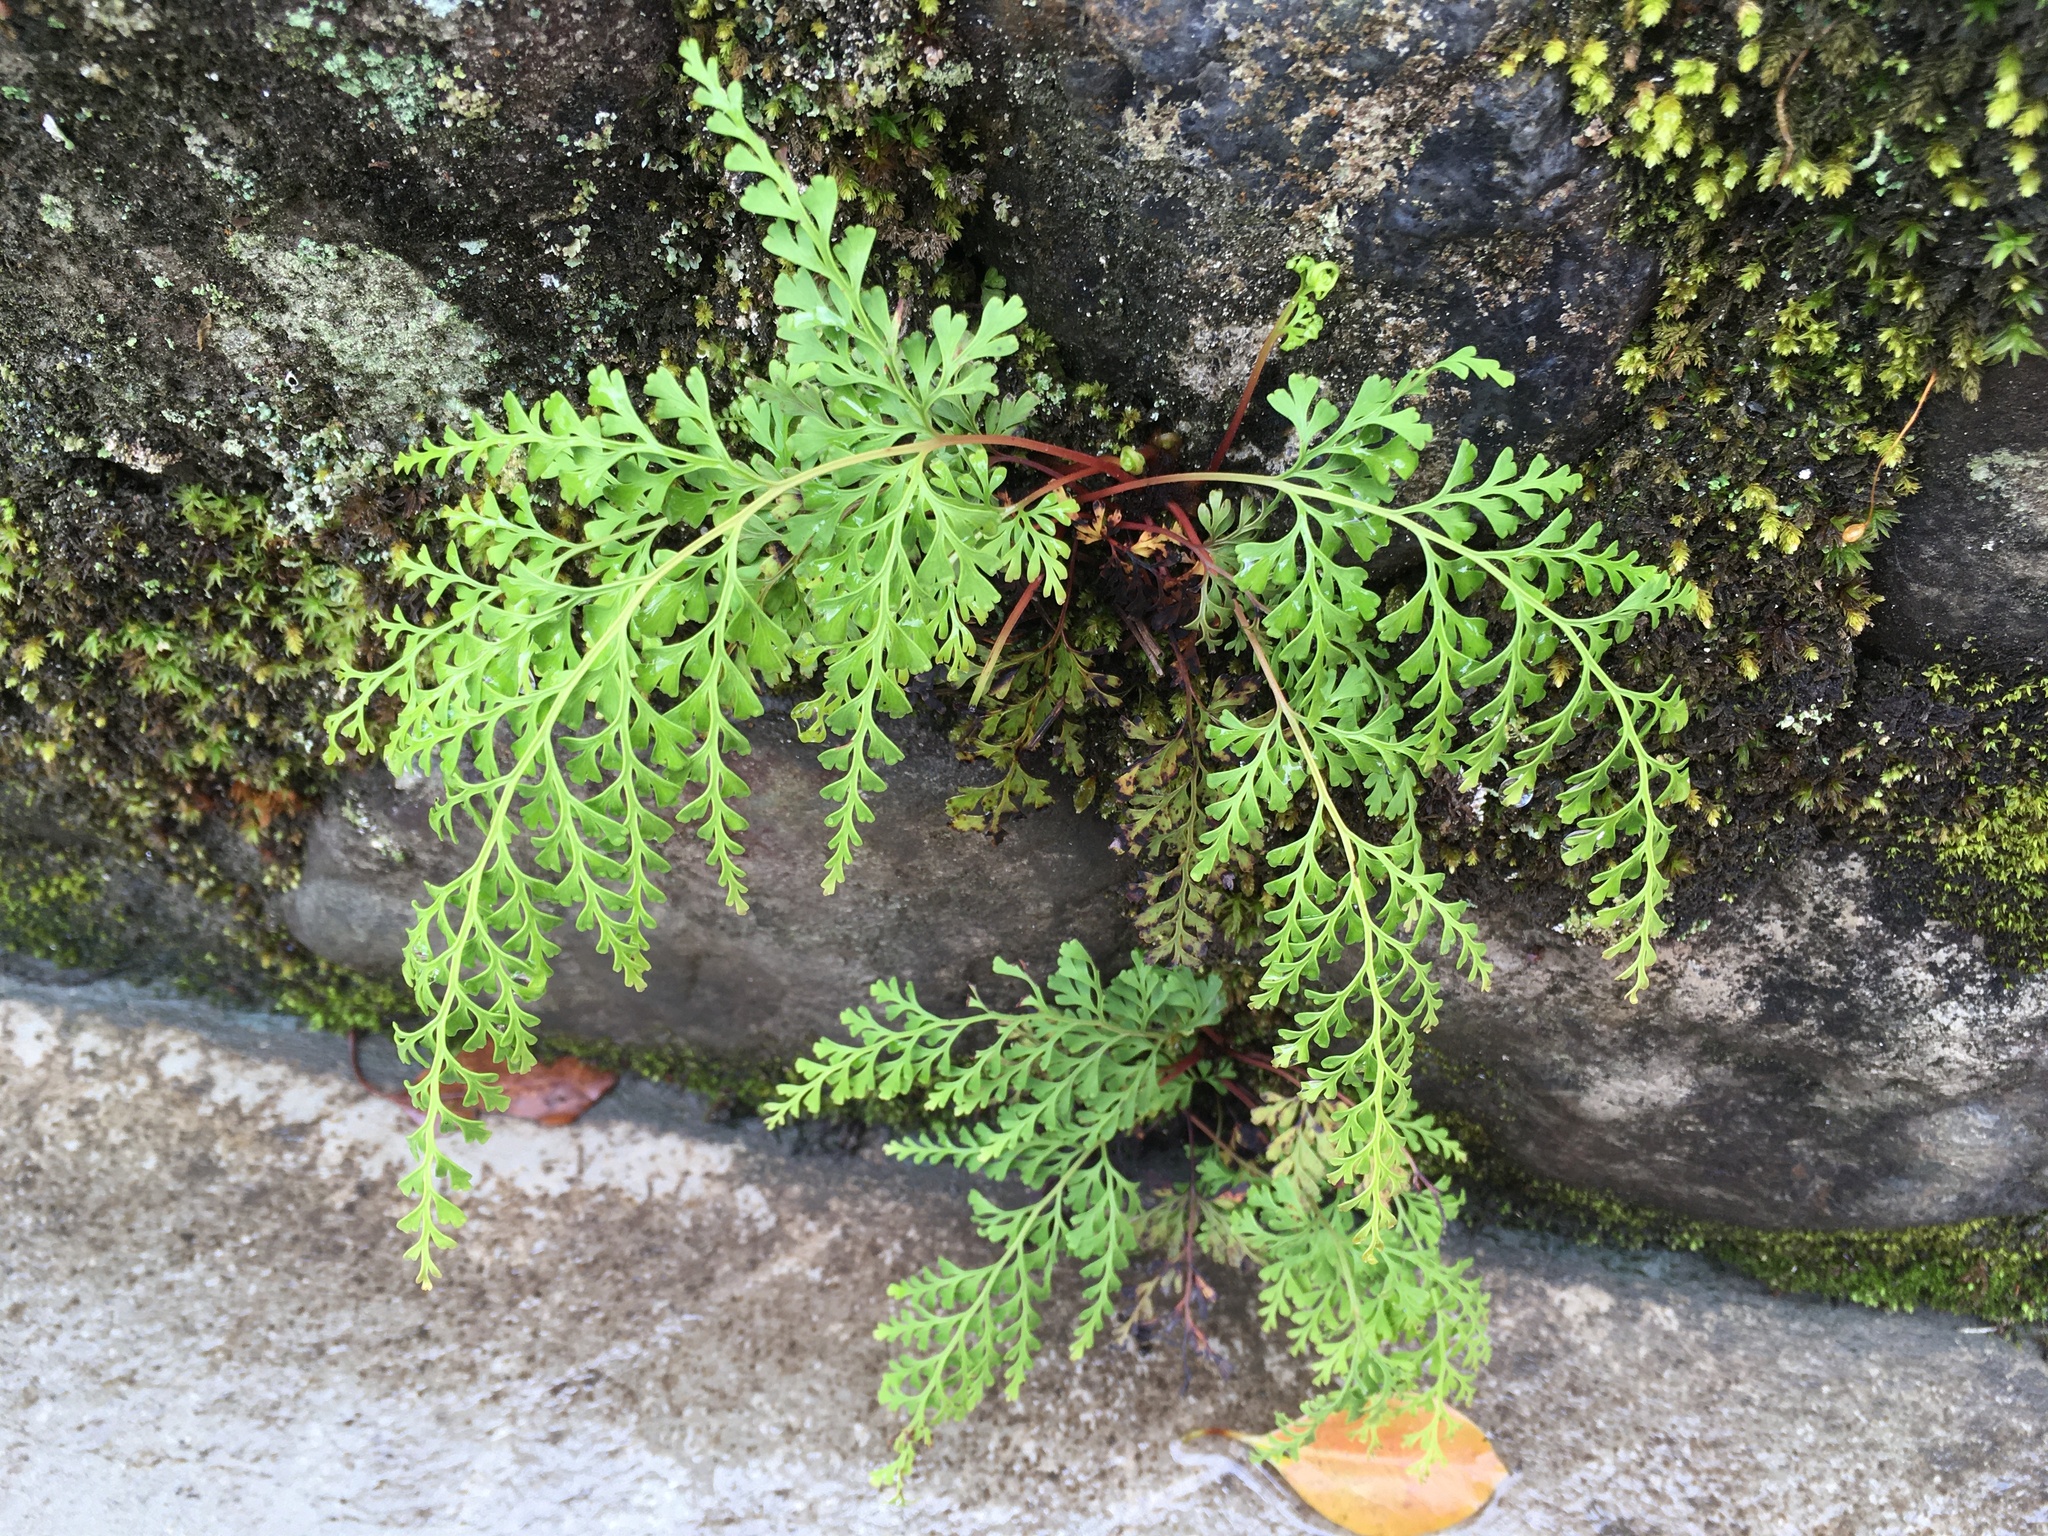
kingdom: Plantae
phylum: Tracheophyta
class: Polypodiopsida
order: Polypodiales
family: Lindsaeaceae
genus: Odontosoria
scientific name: Odontosoria chinensis
